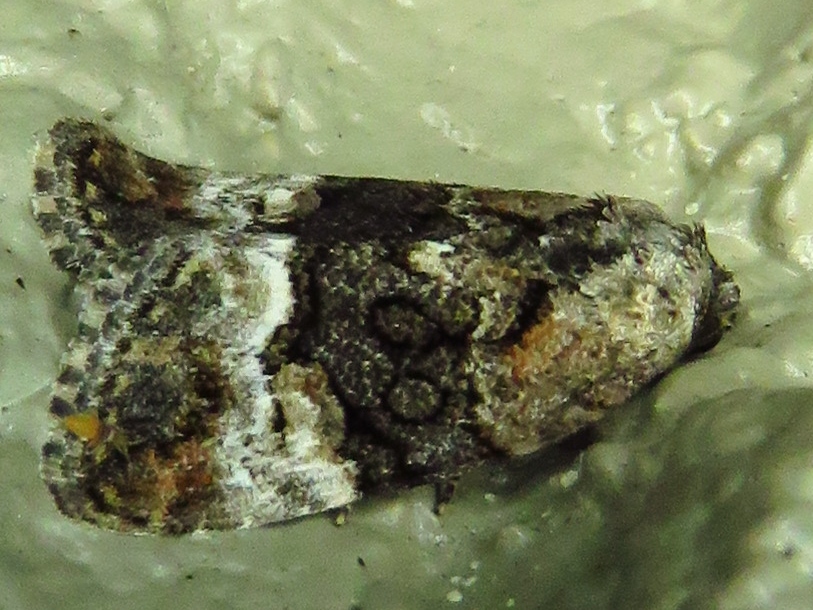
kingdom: Animalia
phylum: Arthropoda
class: Insecta
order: Lepidoptera
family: Noctuidae
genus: Elaphria
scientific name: Elaphria georgei
